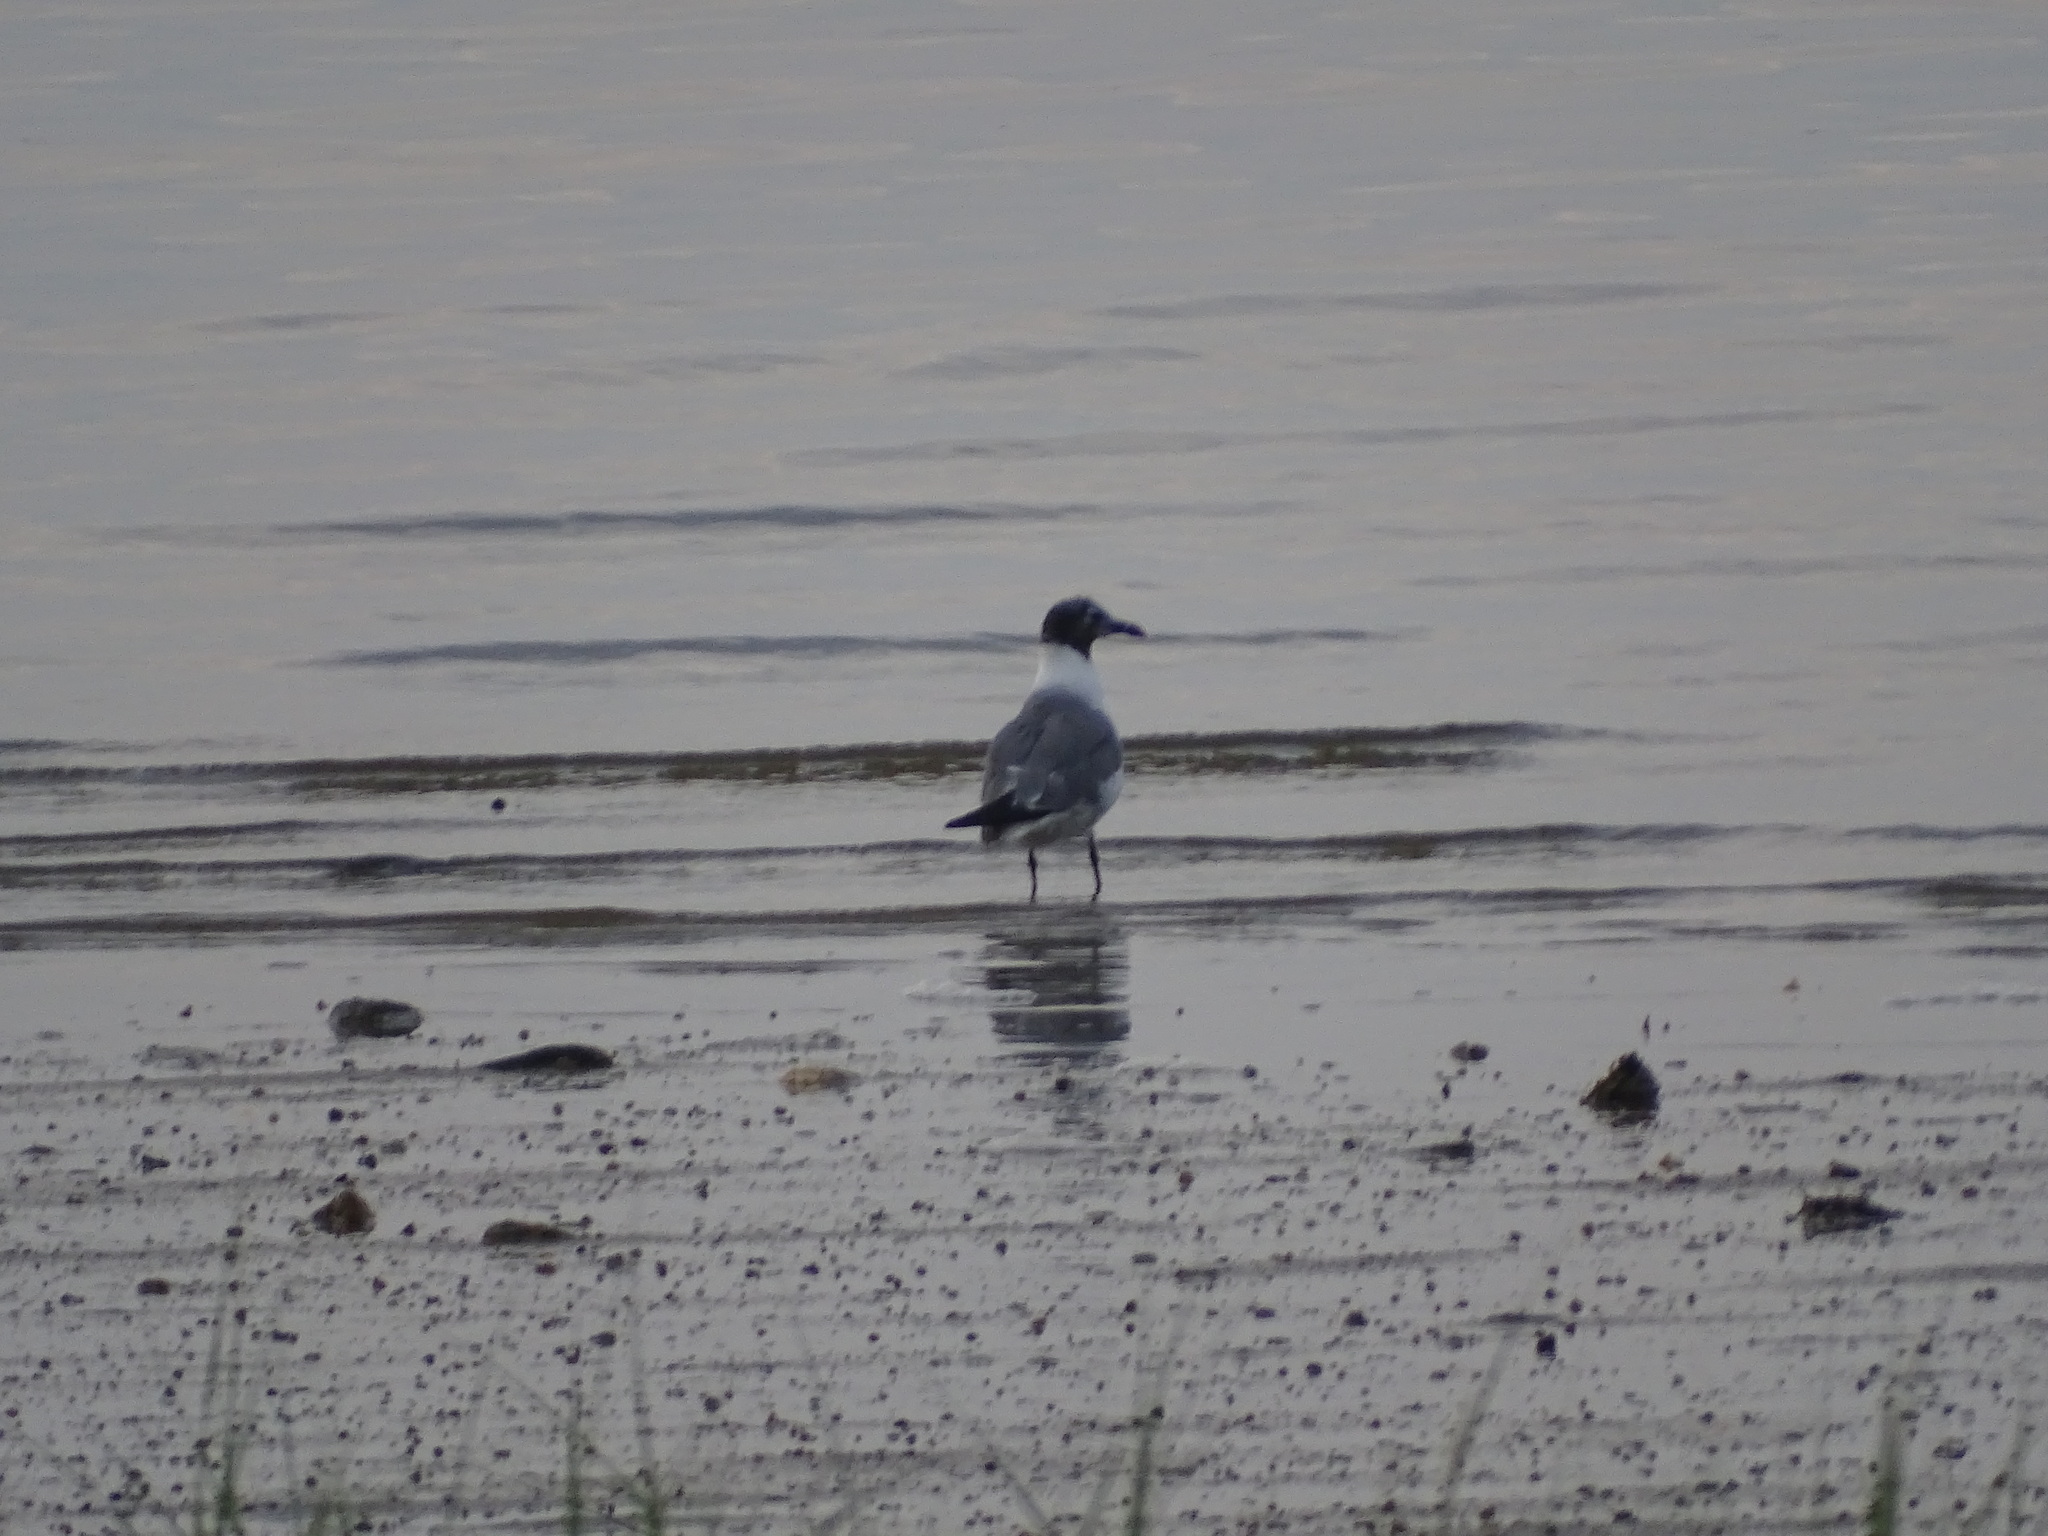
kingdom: Animalia
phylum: Chordata
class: Aves
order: Charadriiformes
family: Laridae
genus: Leucophaeus
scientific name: Leucophaeus atricilla
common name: Laughing gull
